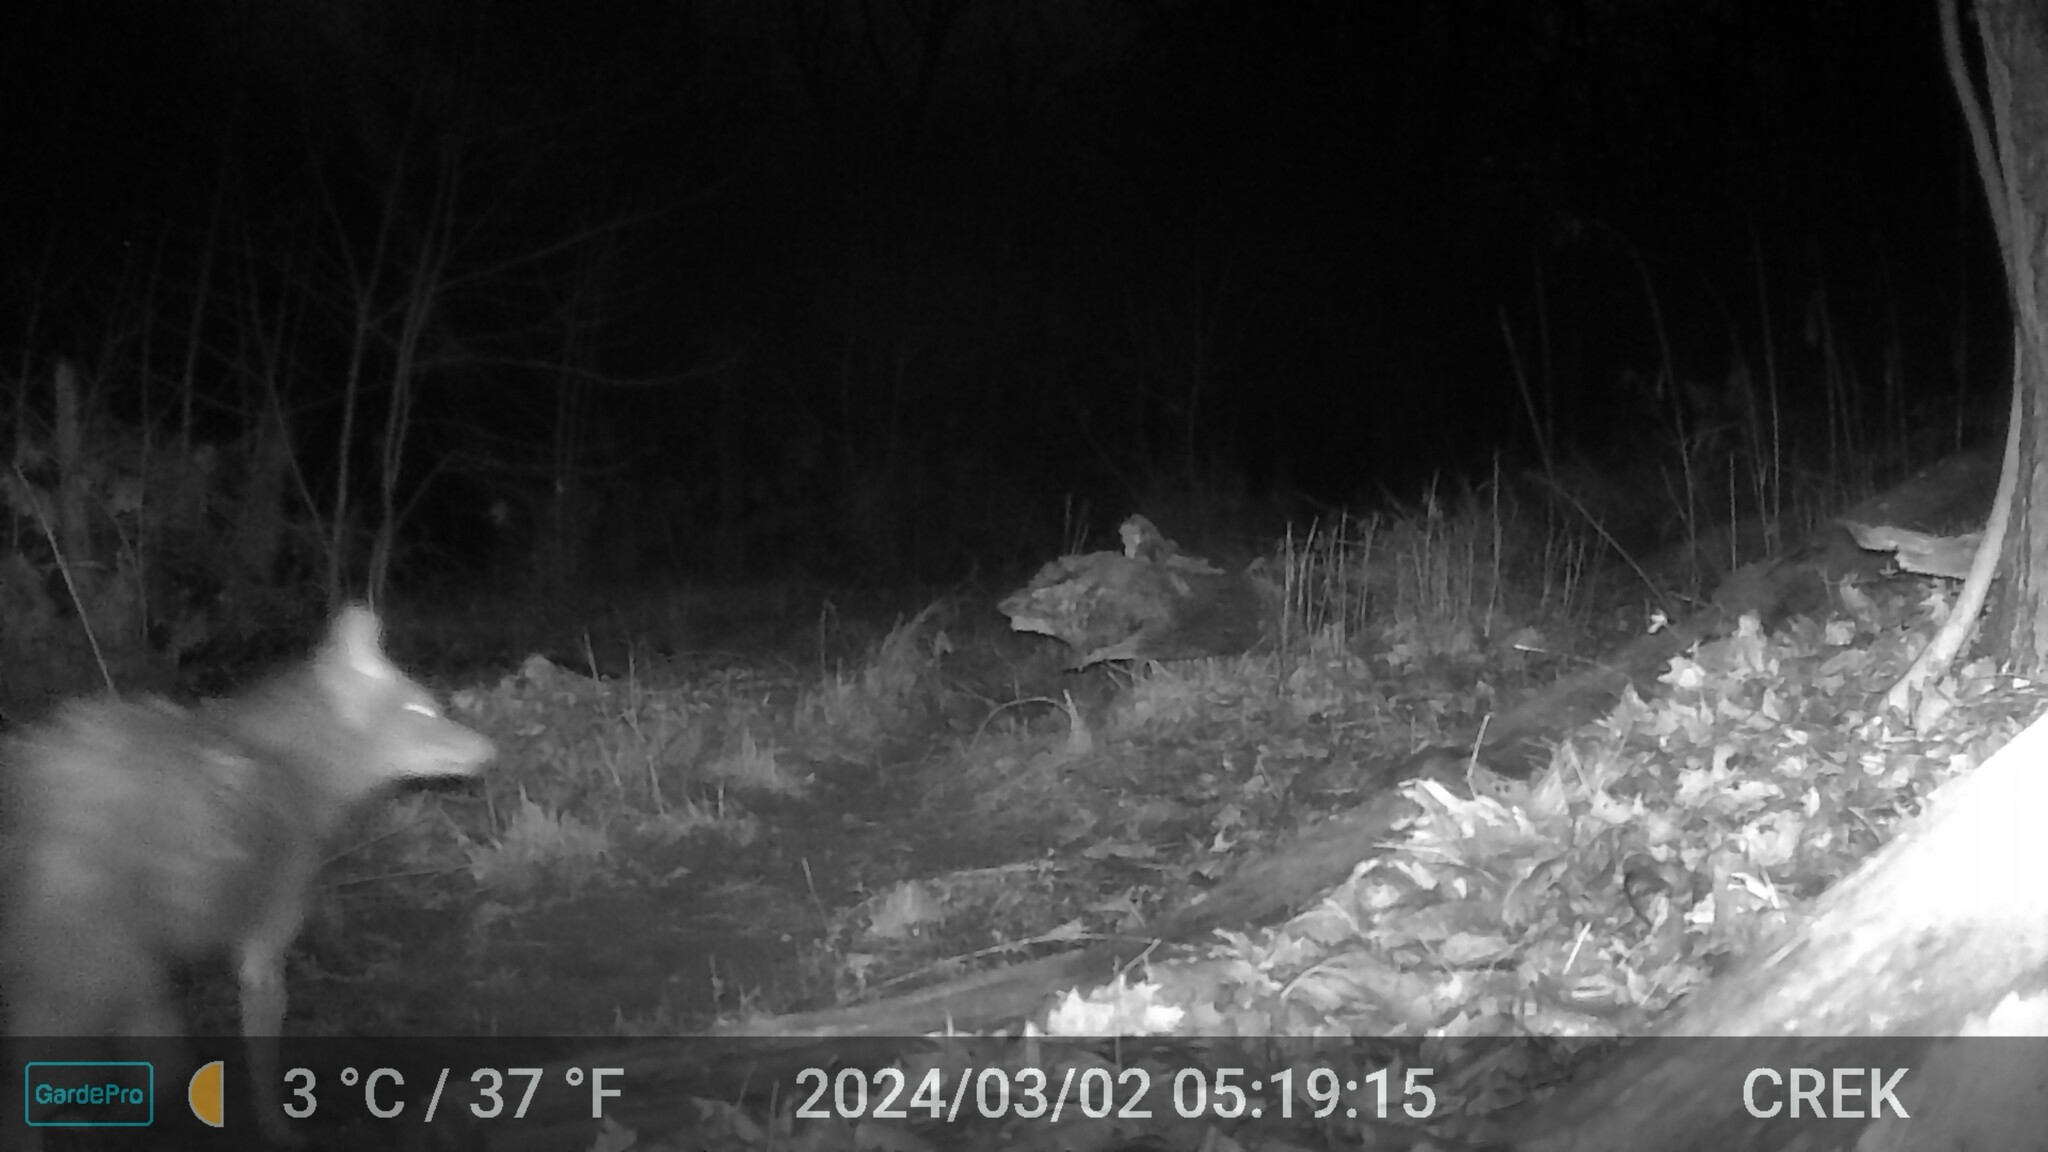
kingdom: Animalia
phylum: Chordata
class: Mammalia
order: Carnivora
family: Canidae
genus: Canis
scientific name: Canis latrans
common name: Coyote
